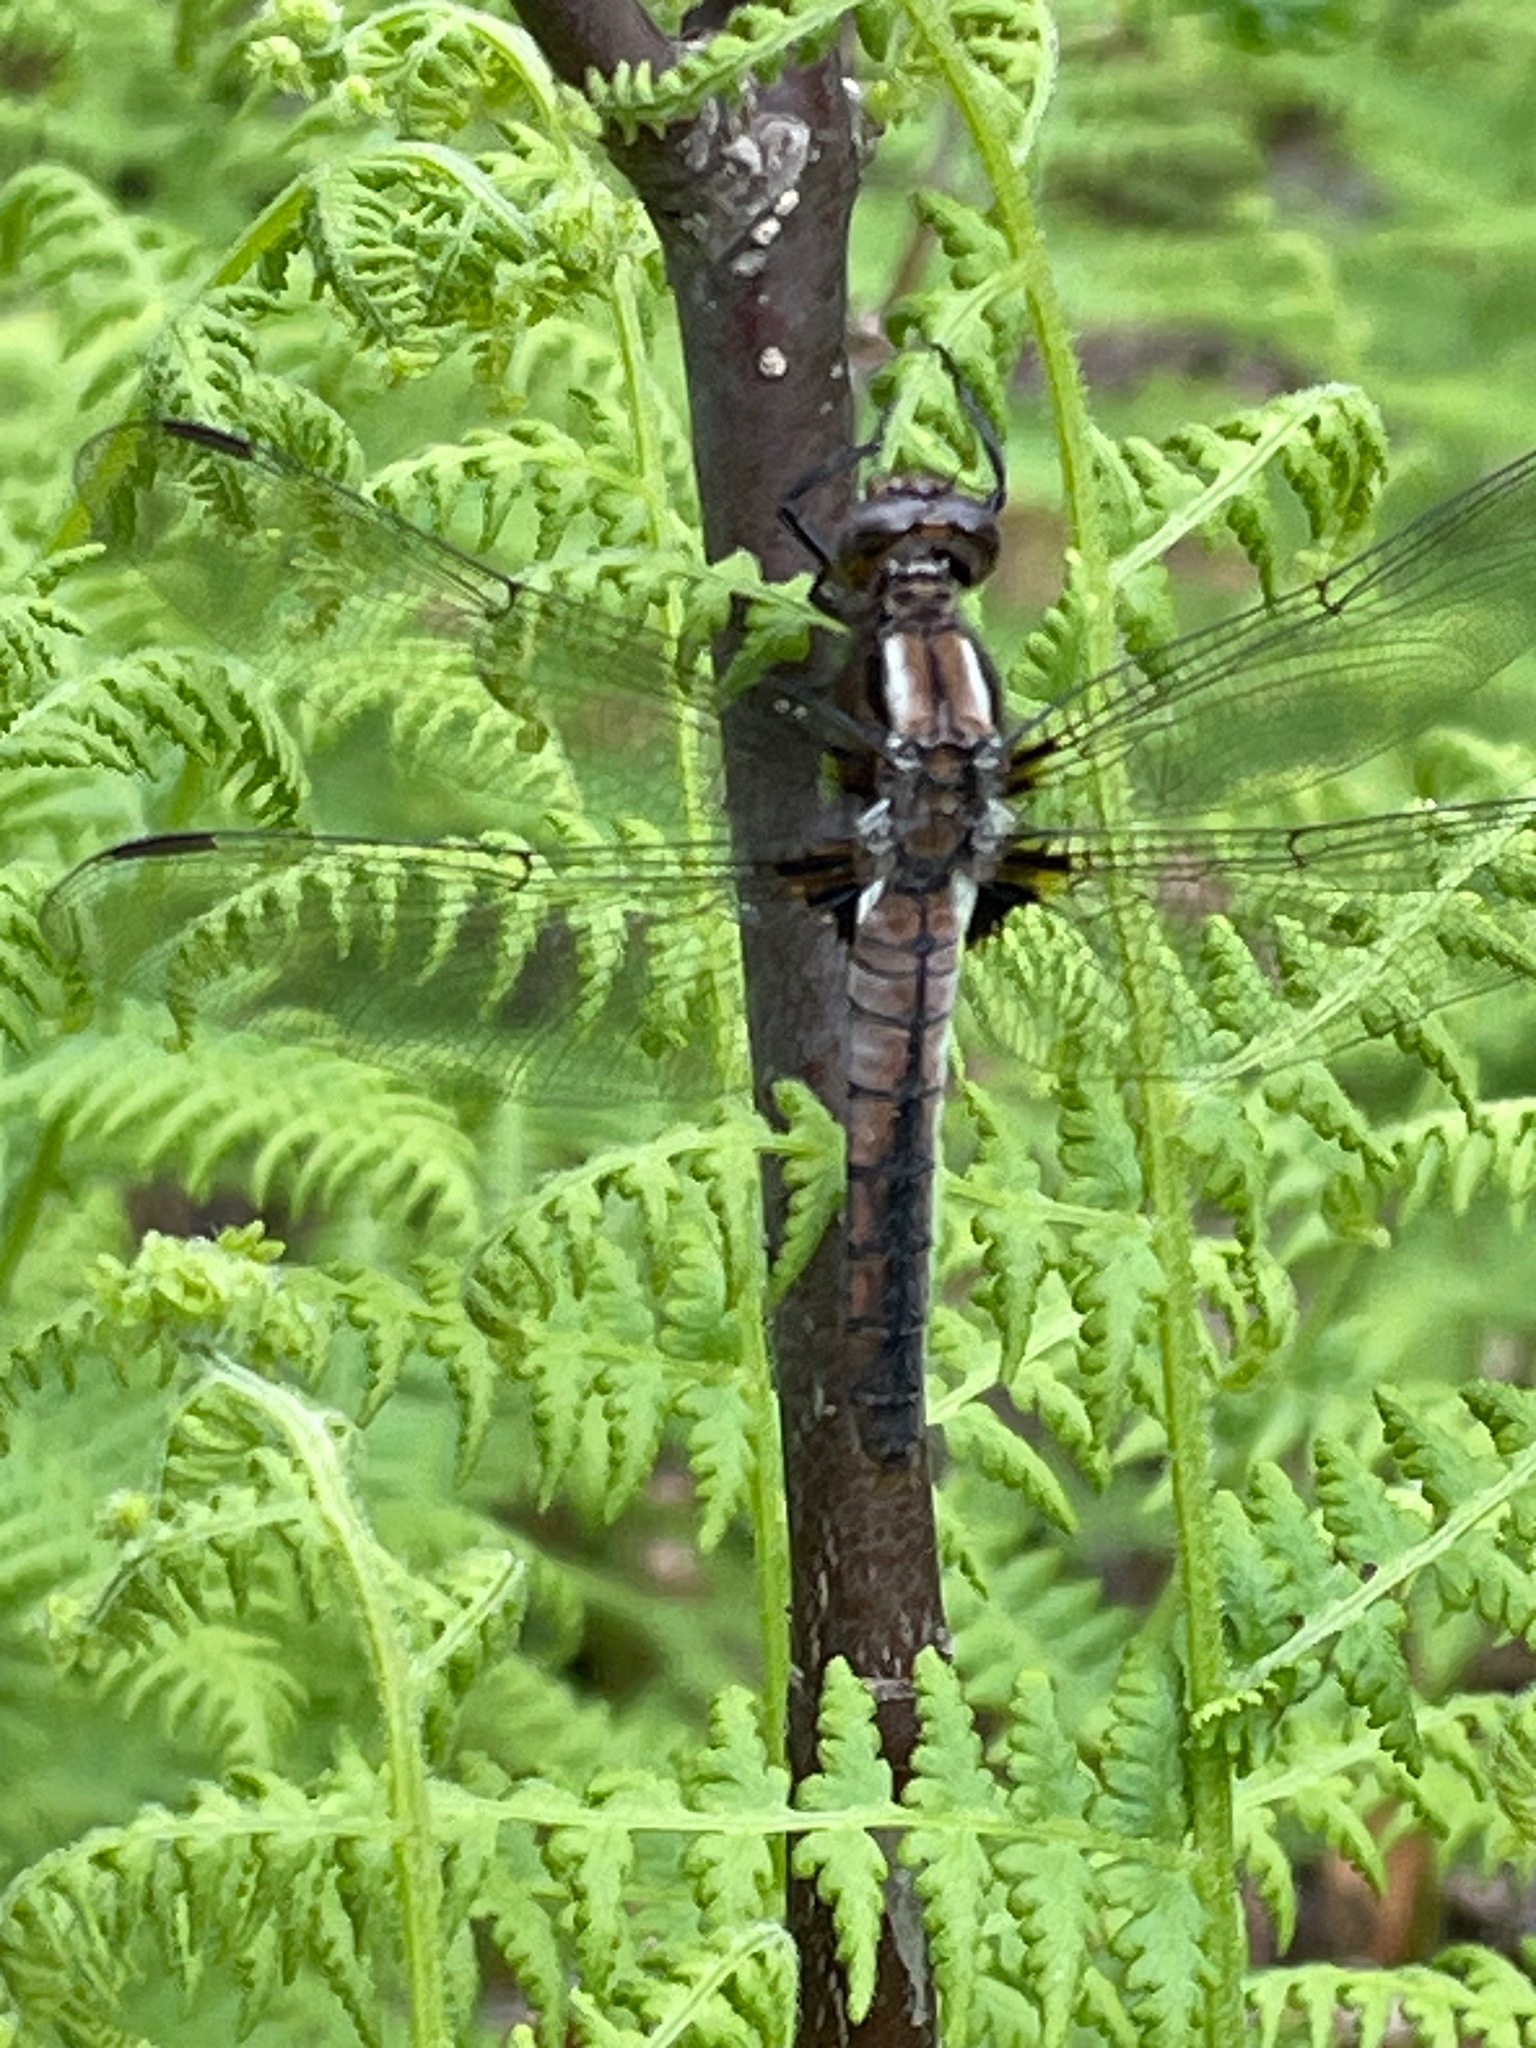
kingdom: Animalia
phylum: Arthropoda
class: Insecta
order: Odonata
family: Libellulidae
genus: Ladona
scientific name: Ladona julia
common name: Chalk-fronted corporal
